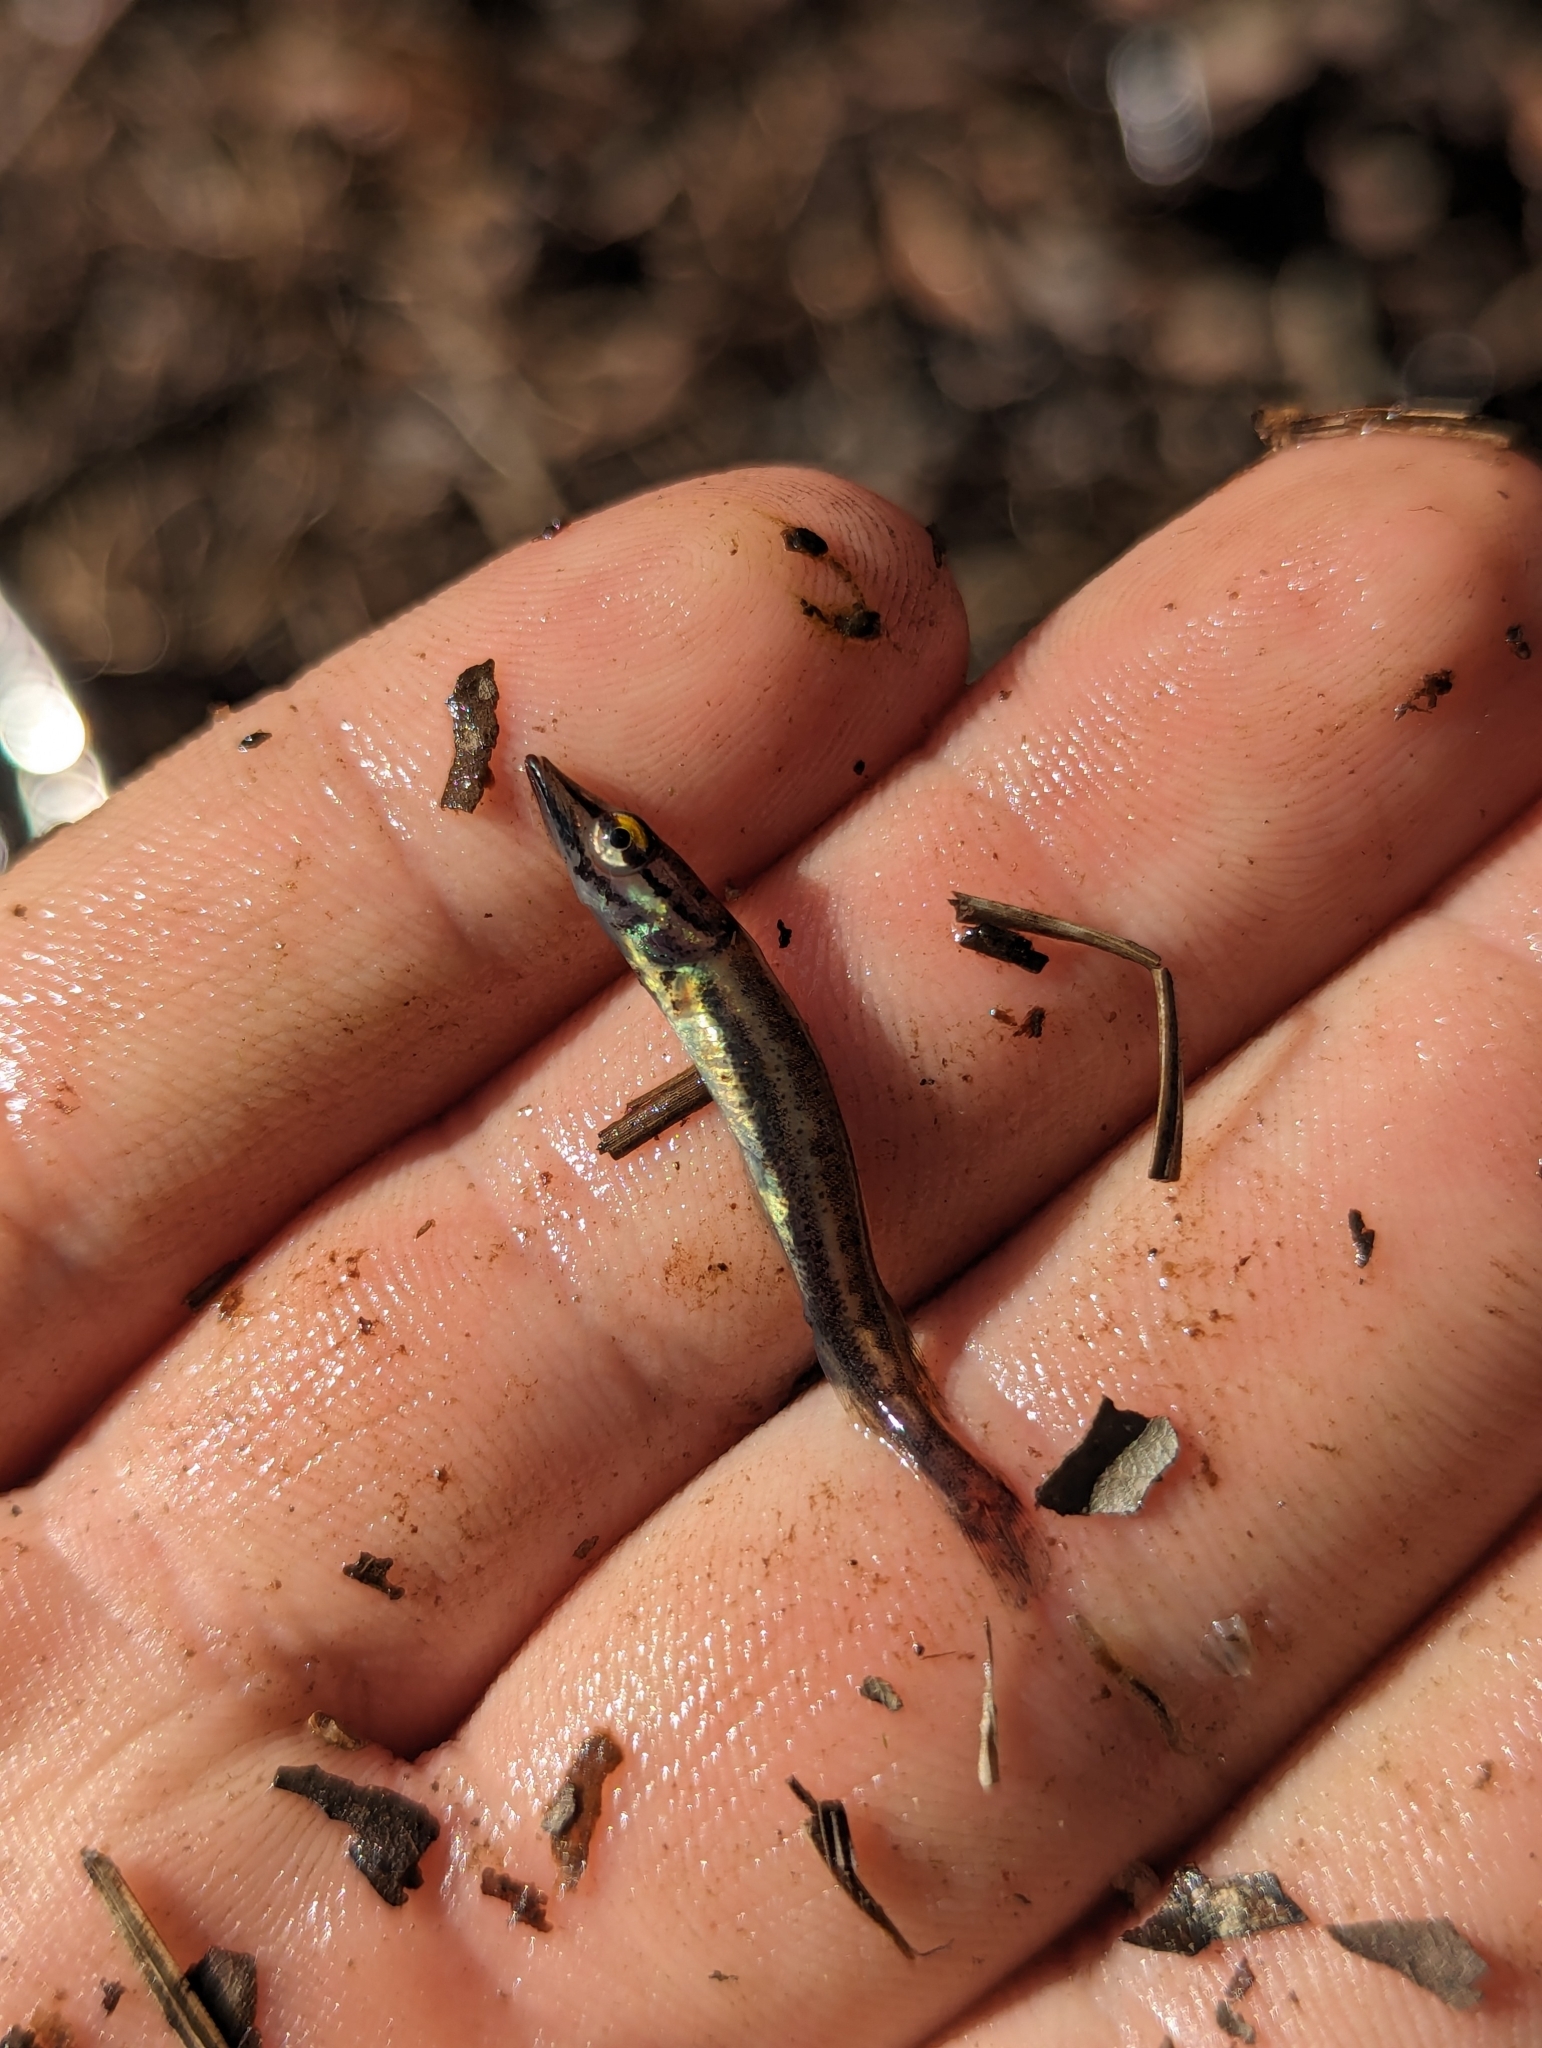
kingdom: Animalia
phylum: Chordata
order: Esociformes
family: Esocidae
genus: Esox
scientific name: Esox americanus
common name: Redfin pickerel
